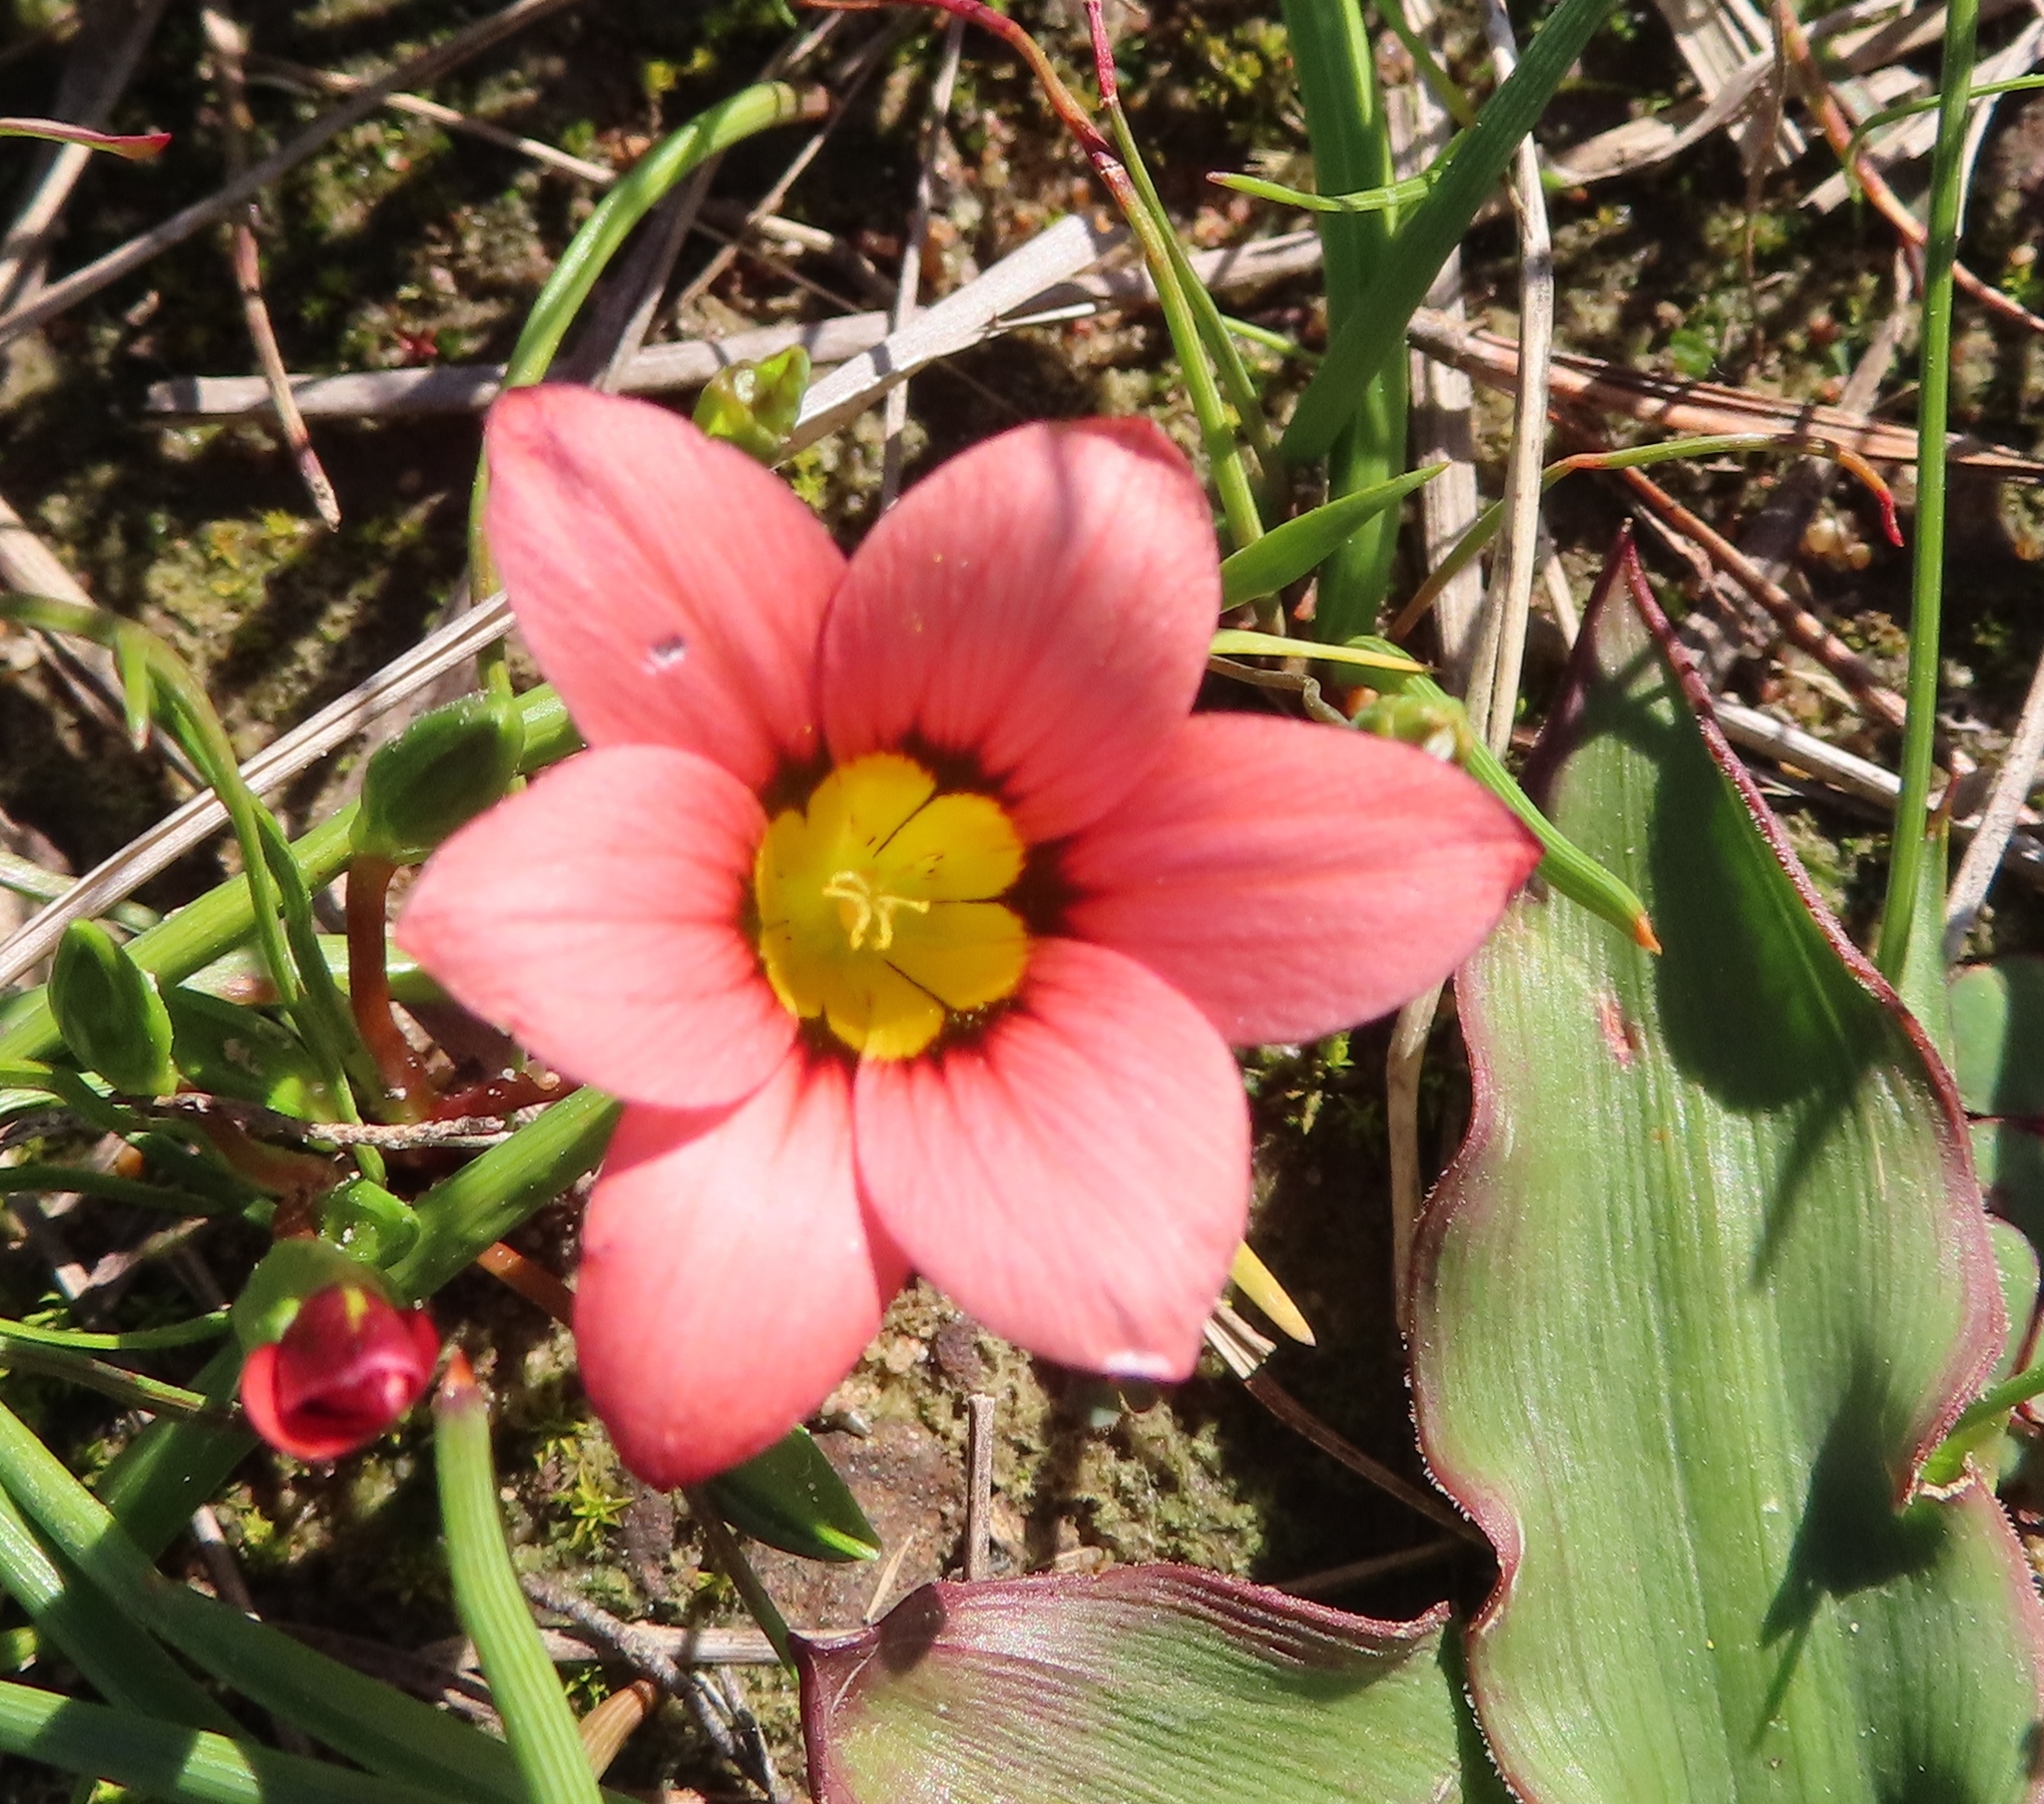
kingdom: Plantae
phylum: Tracheophyta
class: Liliopsida
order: Asparagales
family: Iridaceae
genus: Romulea
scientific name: Romulea hirsuta
